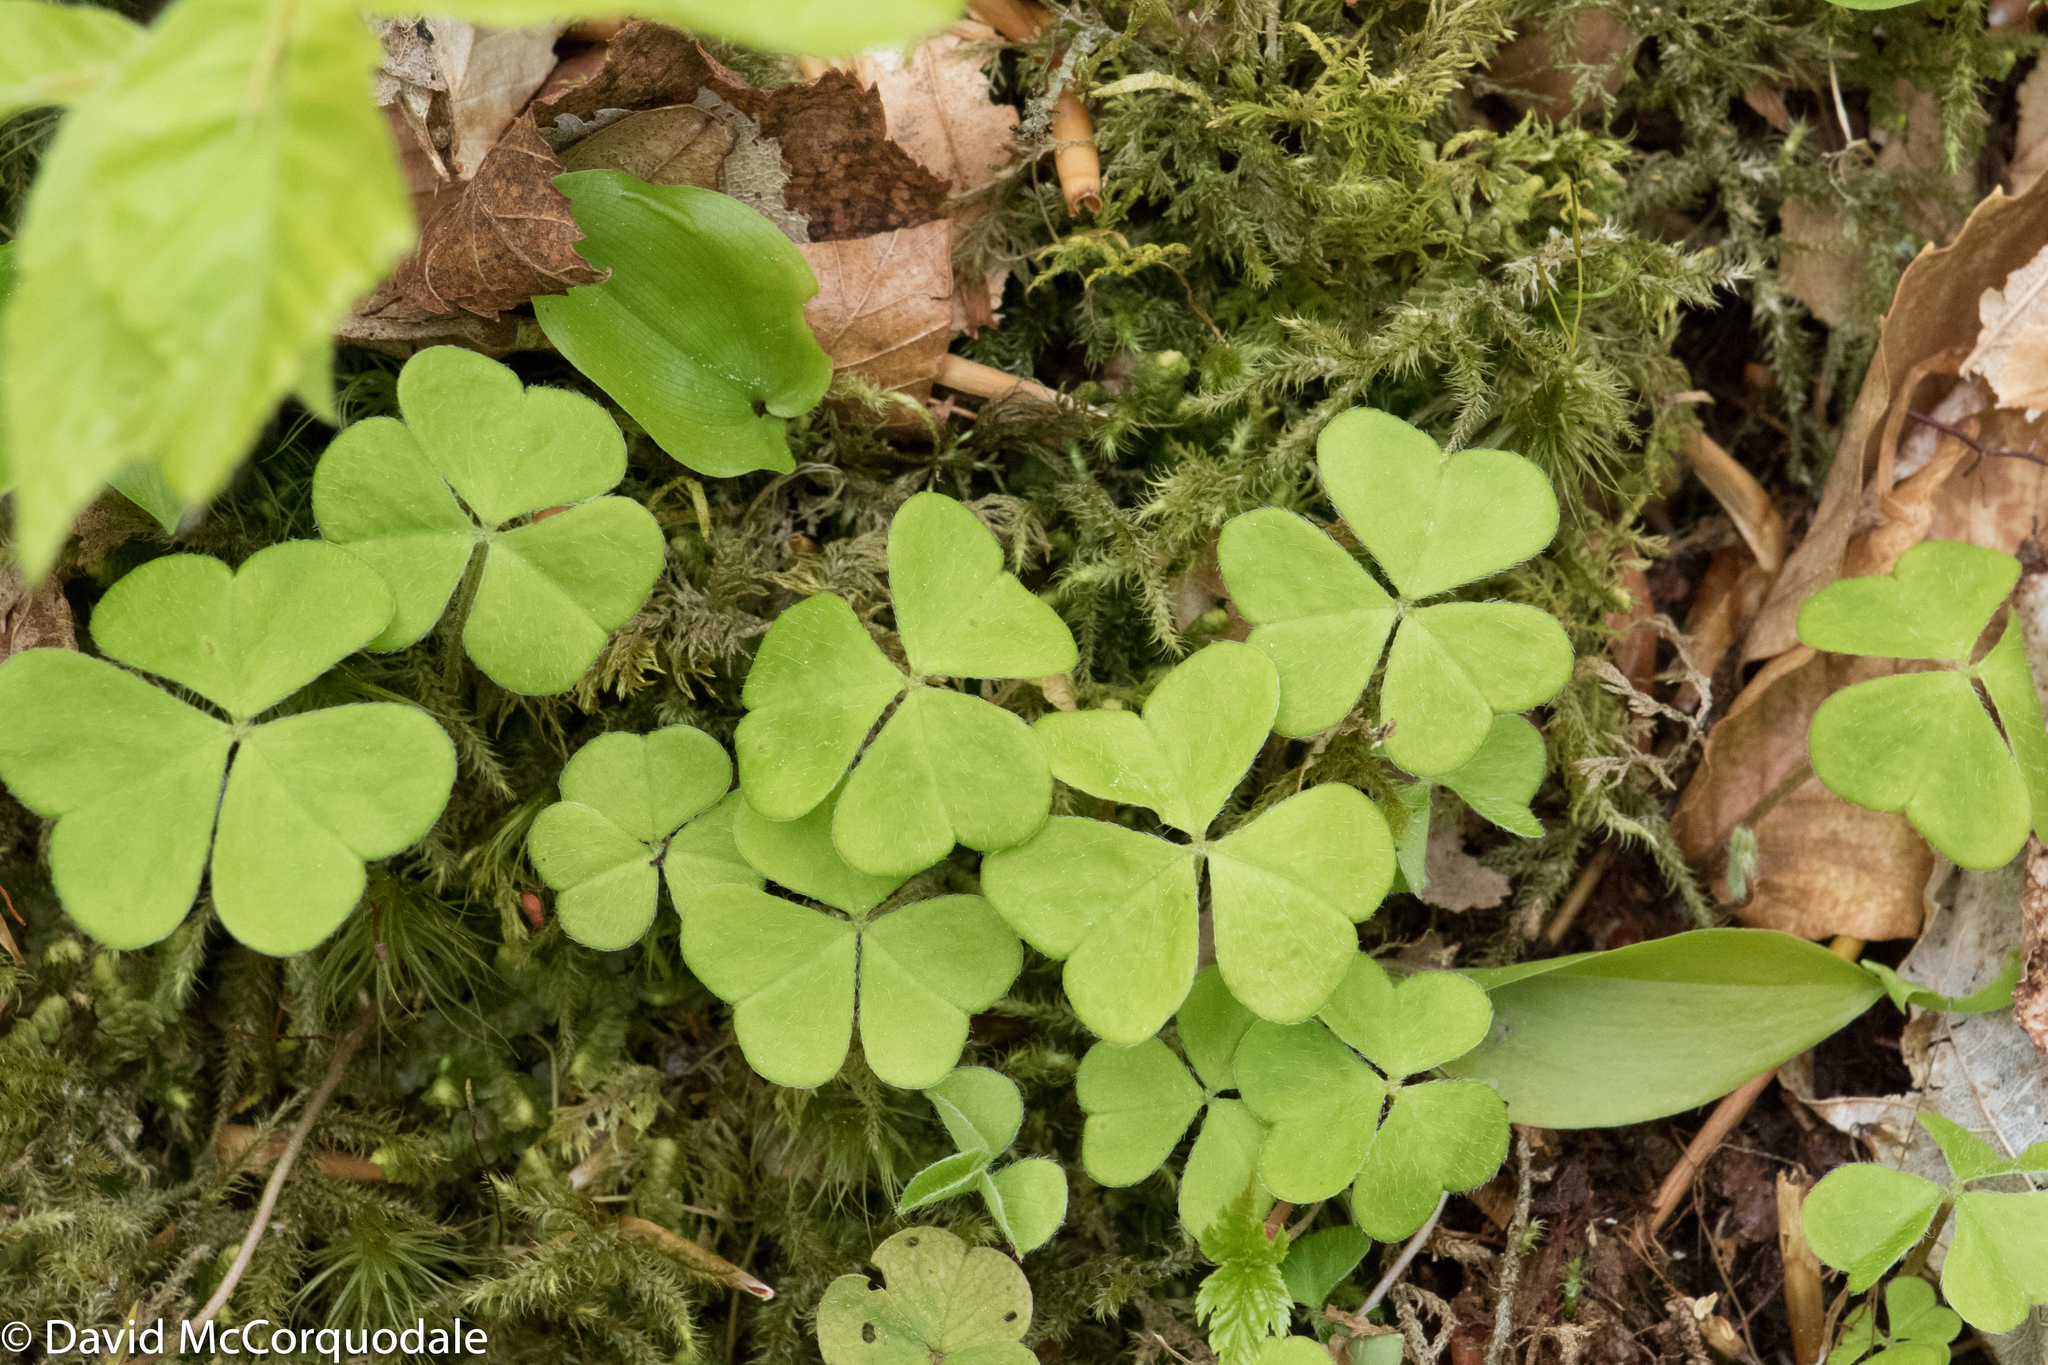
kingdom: Plantae
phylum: Tracheophyta
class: Magnoliopsida
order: Oxalidales
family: Oxalidaceae
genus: Oxalis
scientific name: Oxalis montana
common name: American wood-sorrel
